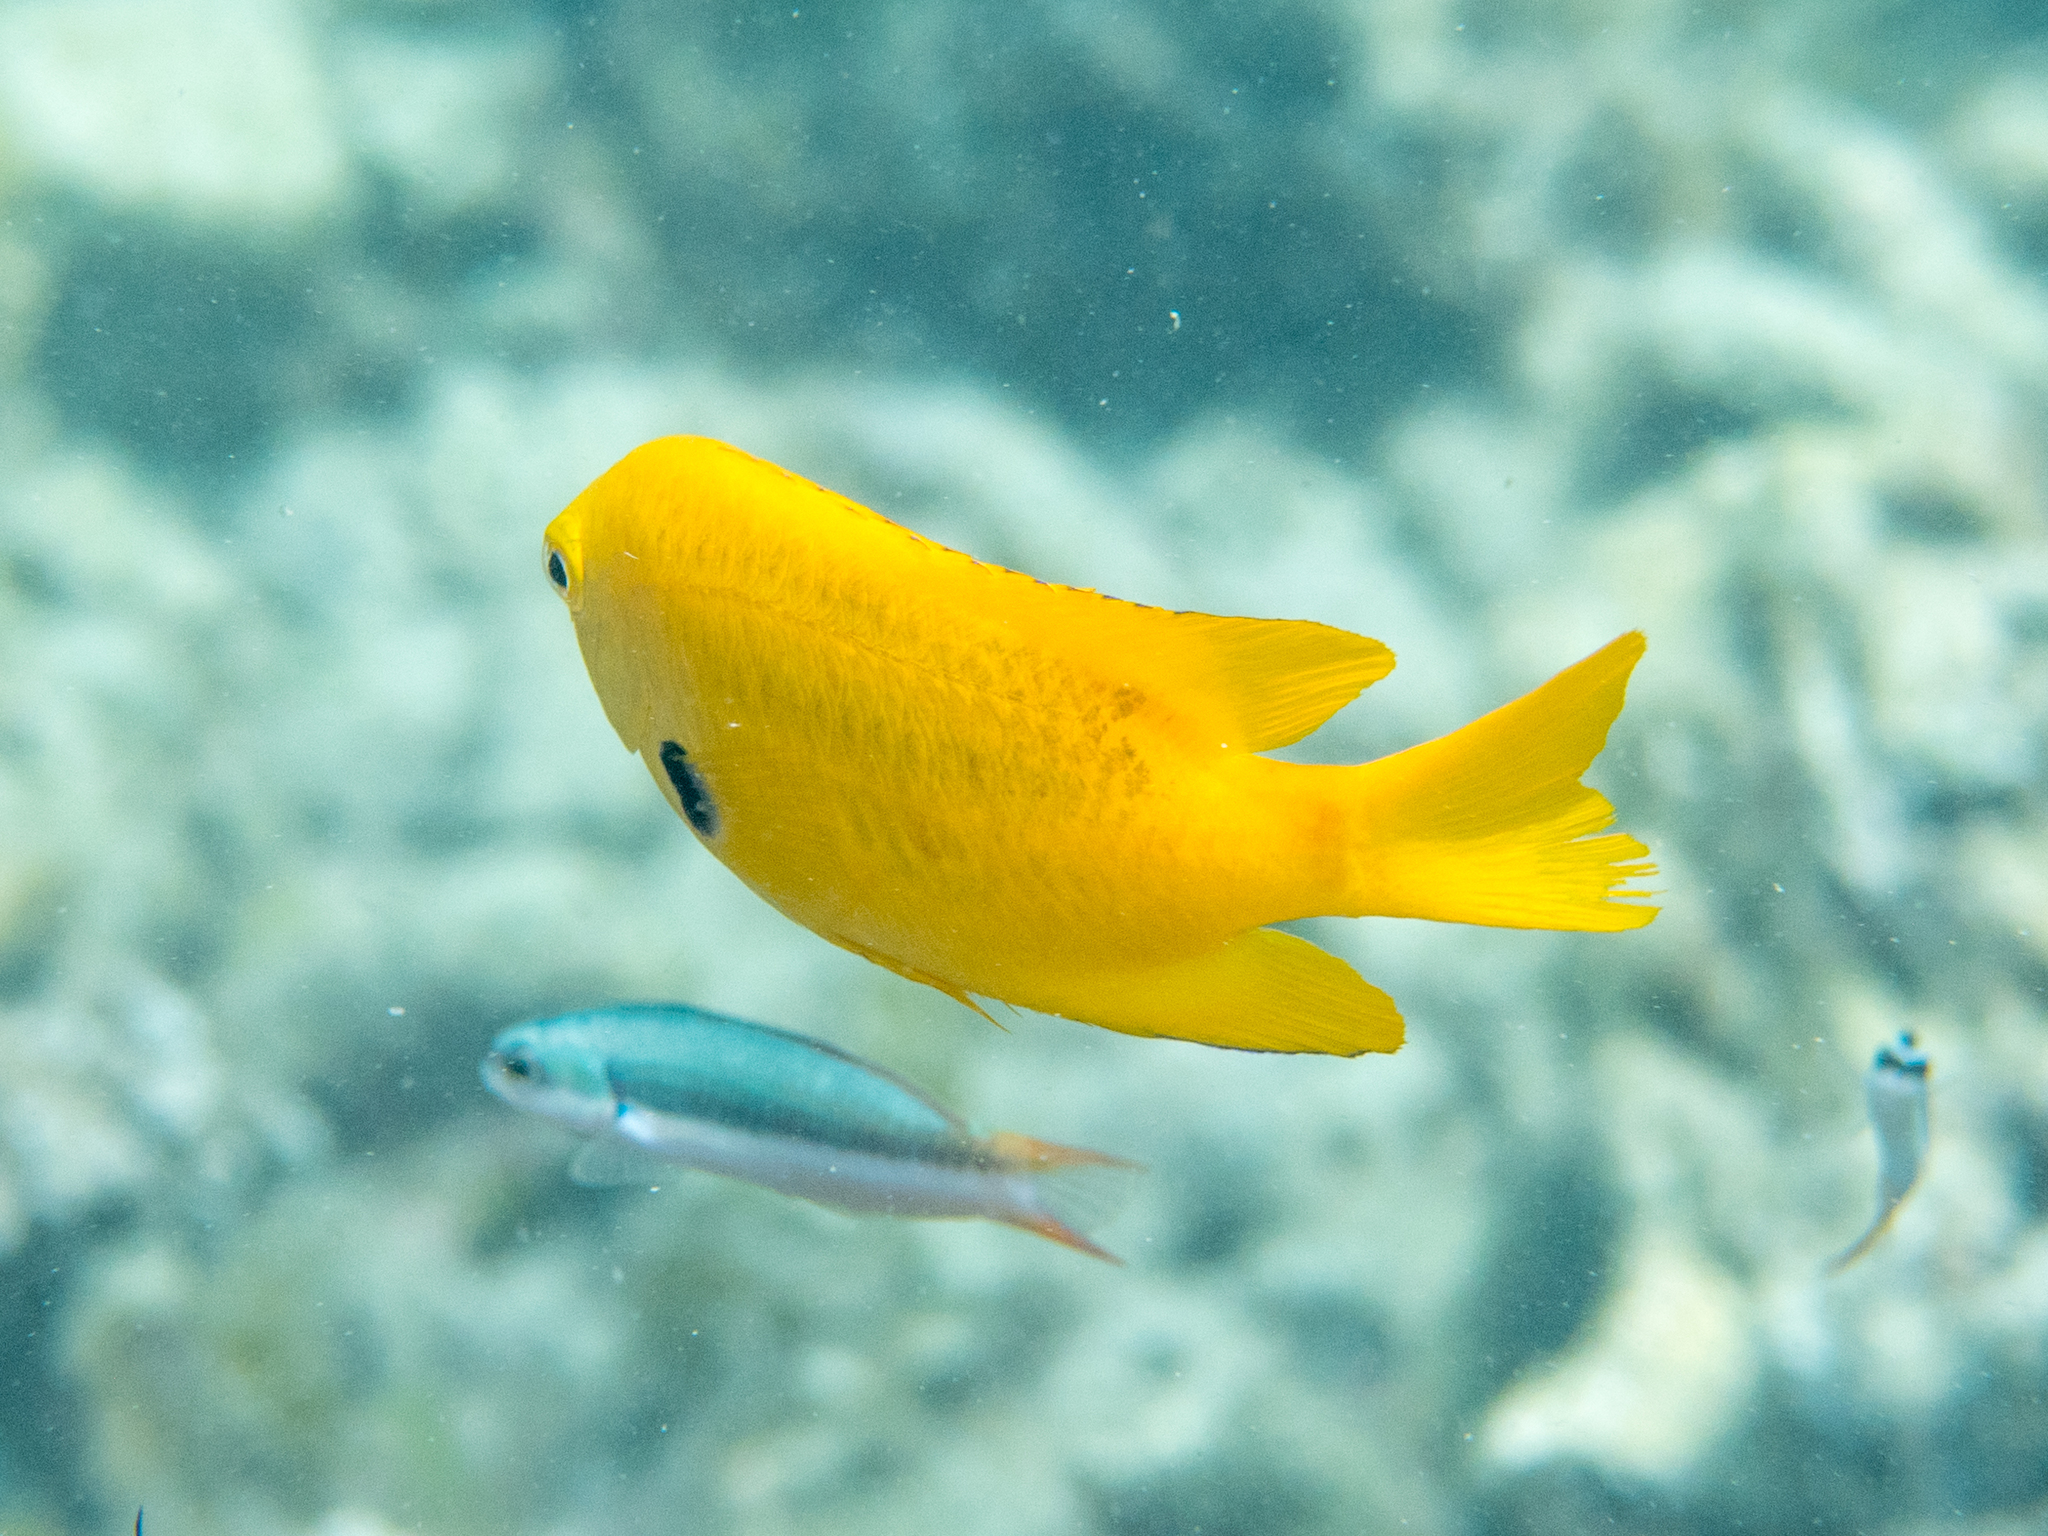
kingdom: Animalia
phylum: Chordata
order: Perciformes
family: Pomacentridae
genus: Pomacentrus
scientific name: Pomacentrus sulfureus
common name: Sulfur damsel
